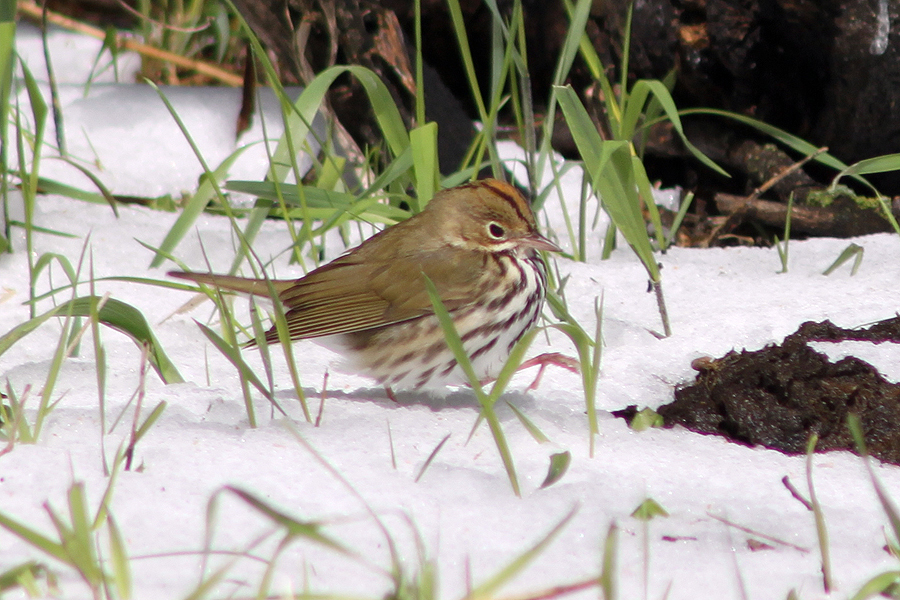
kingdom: Animalia
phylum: Chordata
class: Aves
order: Passeriformes
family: Parulidae
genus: Seiurus
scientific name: Seiurus aurocapilla
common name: Ovenbird
